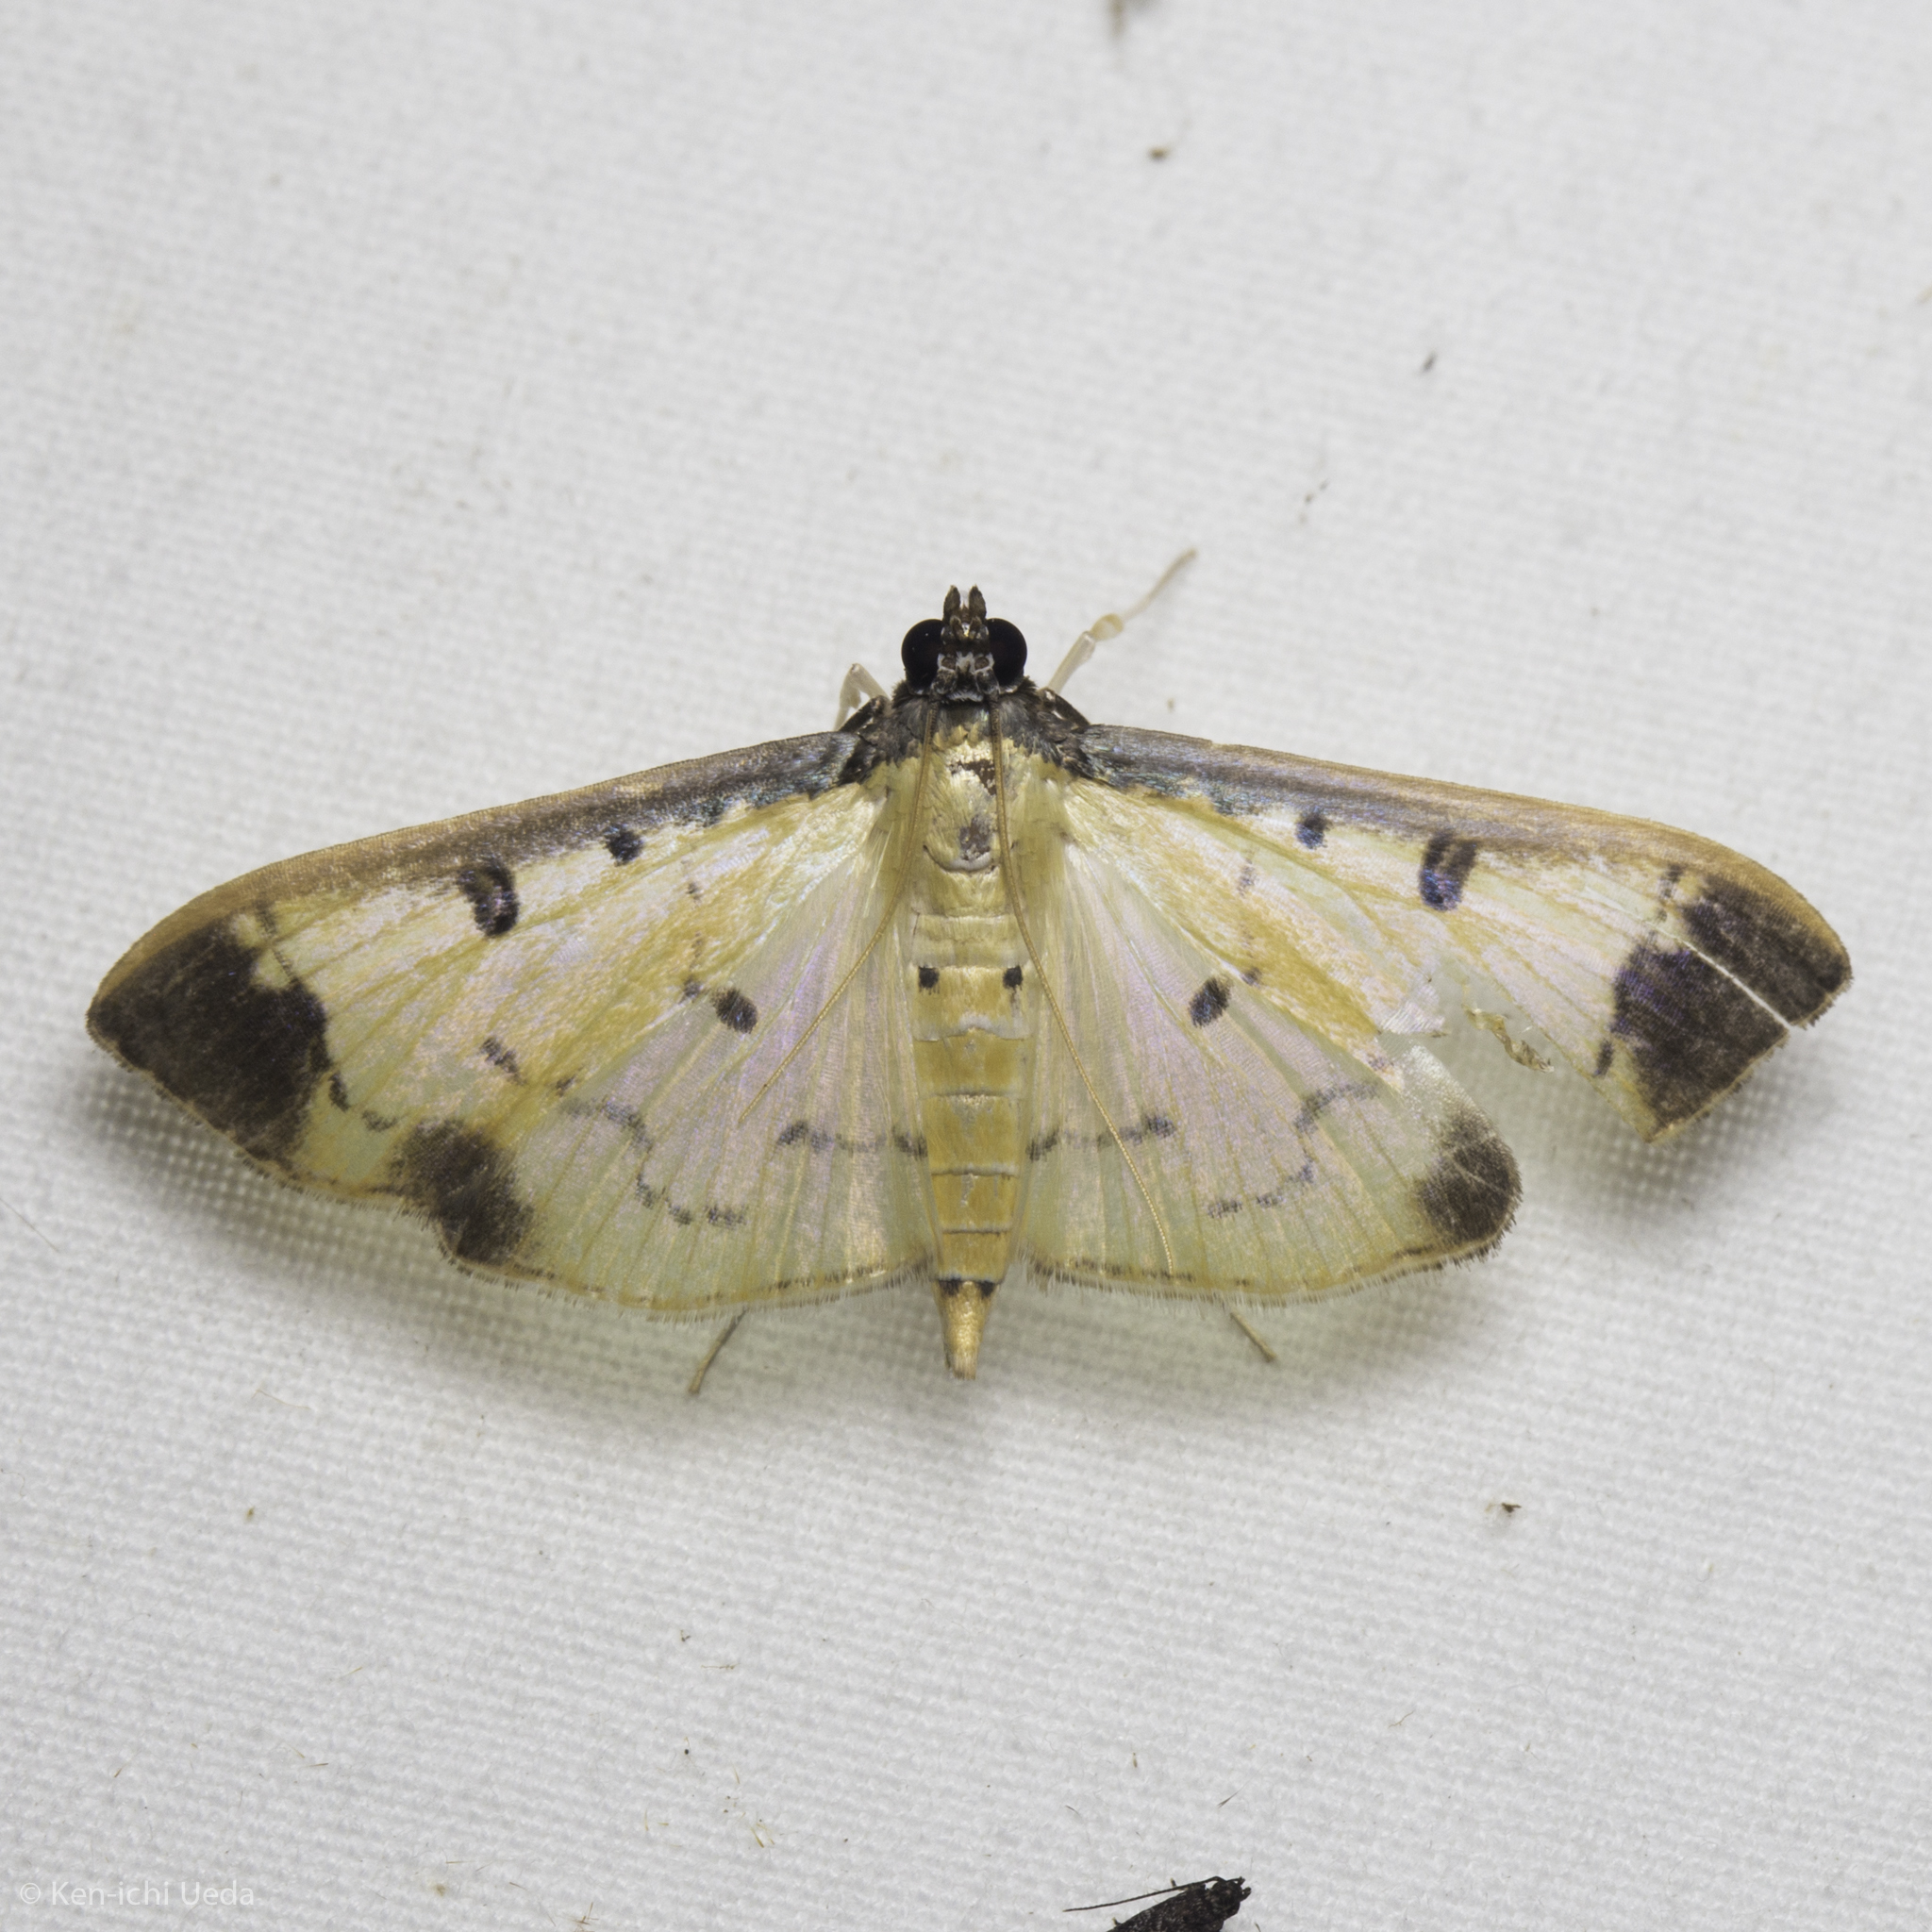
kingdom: Animalia
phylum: Arthropoda
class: Insecta
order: Lepidoptera
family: Crambidae
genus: Eulepte
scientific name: Eulepte concordalis
